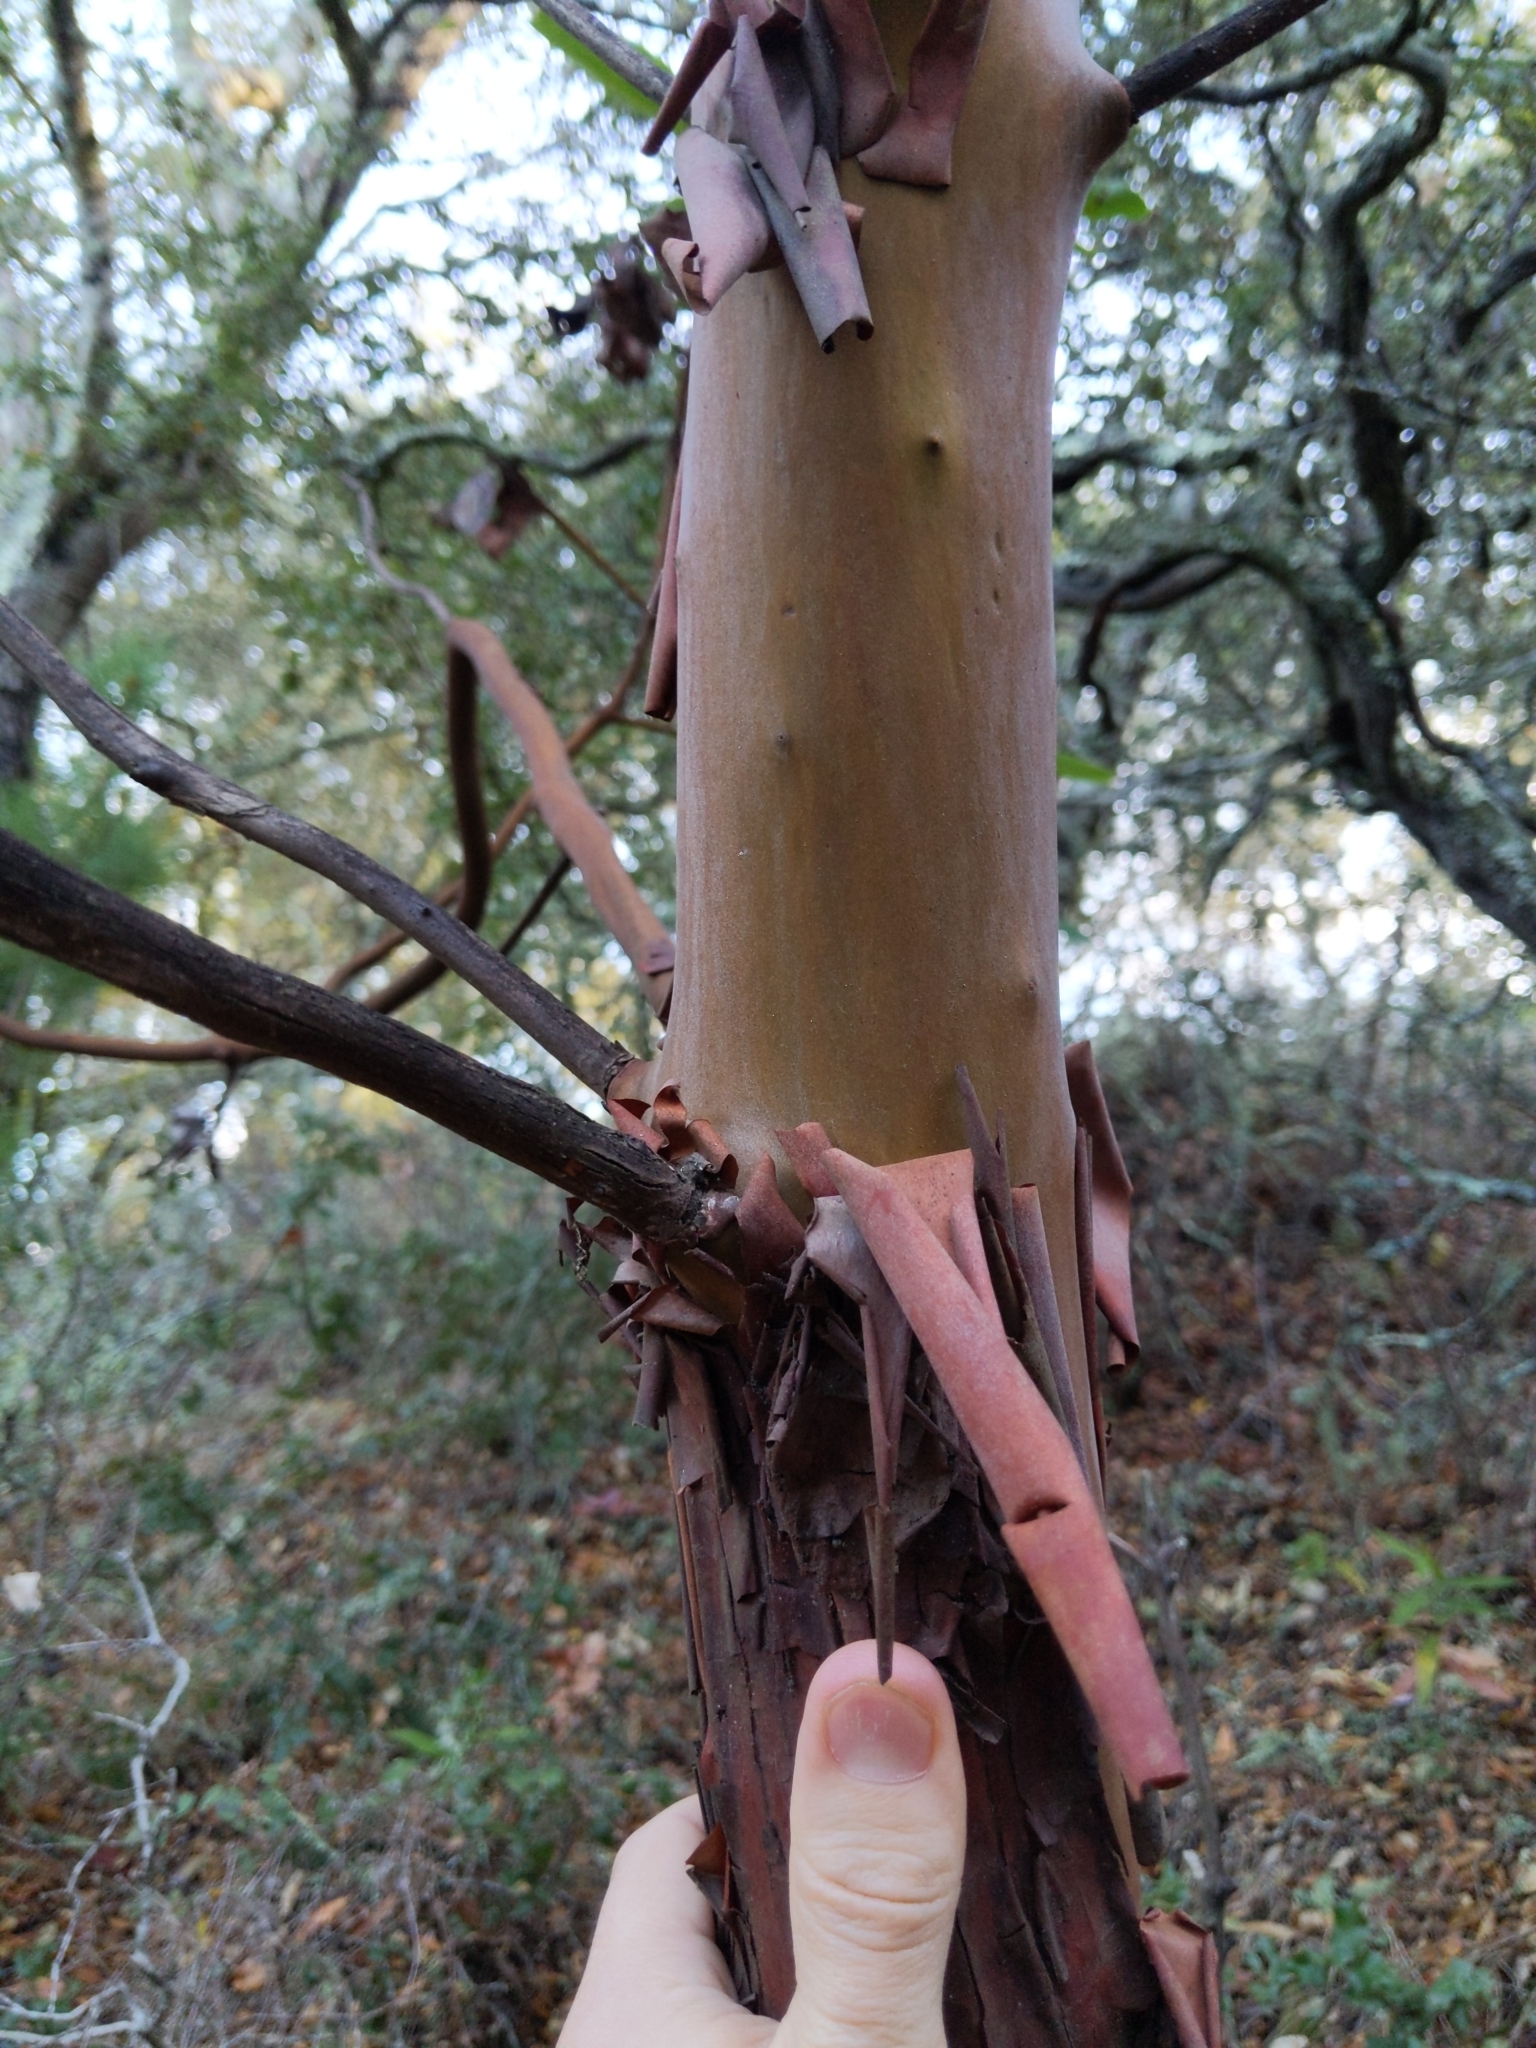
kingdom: Plantae
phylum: Tracheophyta
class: Magnoliopsida
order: Ericales
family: Ericaceae
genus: Arbutus
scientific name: Arbutus menziesii
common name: Pacific madrone
